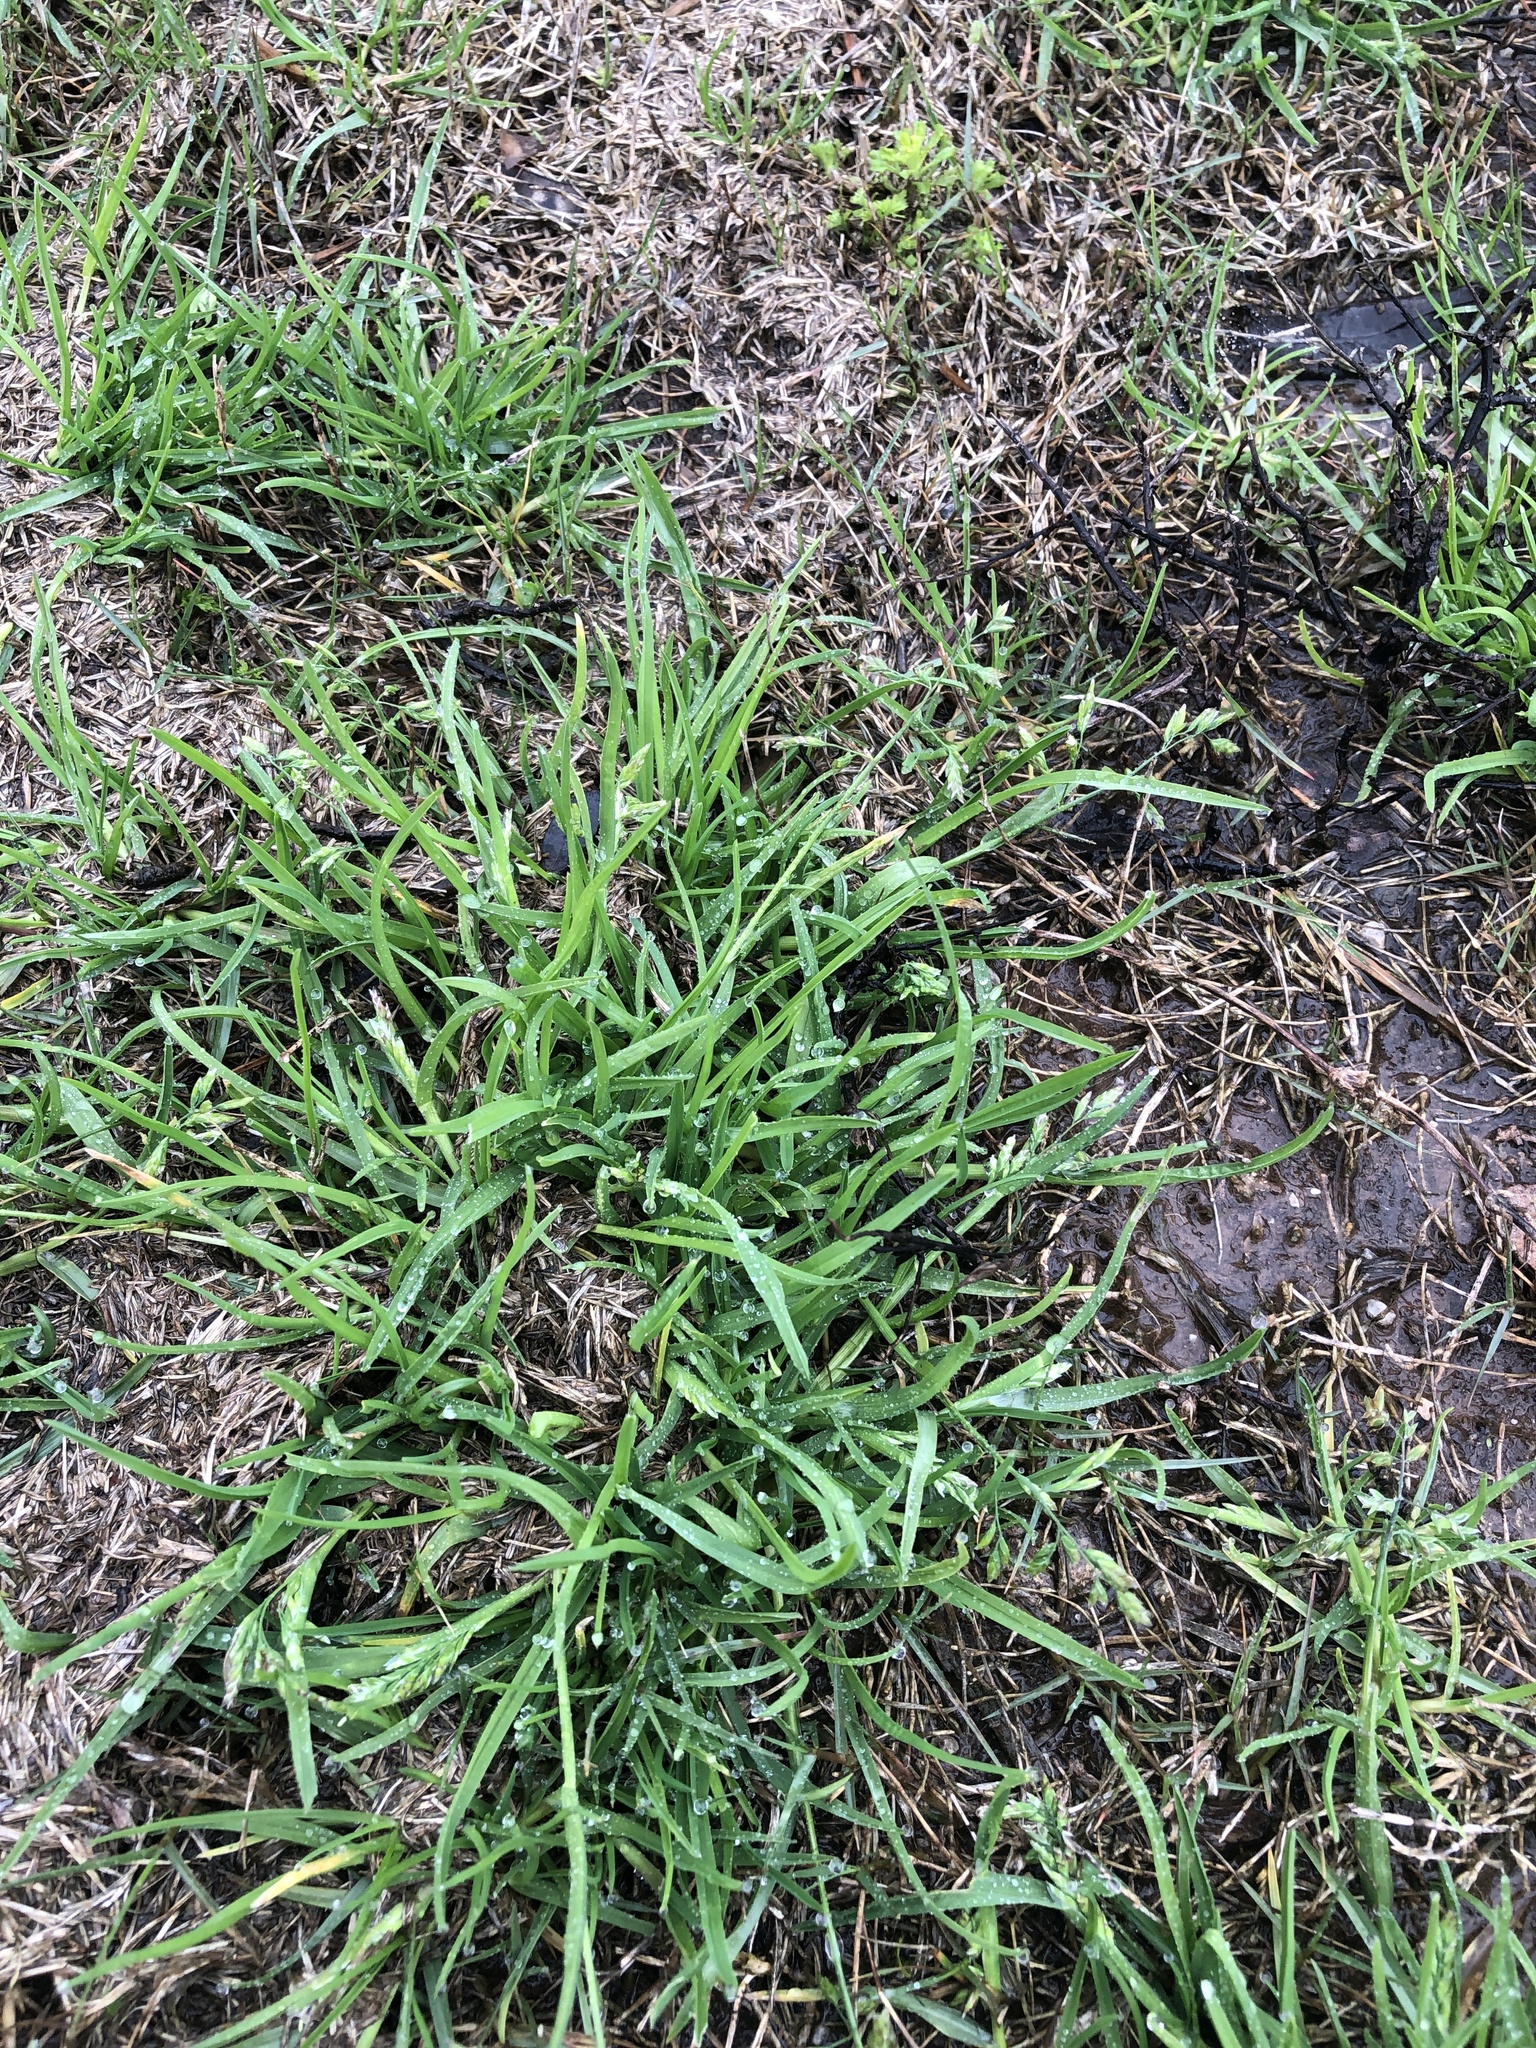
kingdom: Plantae
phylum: Tracheophyta
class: Liliopsida
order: Poales
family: Poaceae
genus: Poa
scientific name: Poa annua
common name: Annual bluegrass
